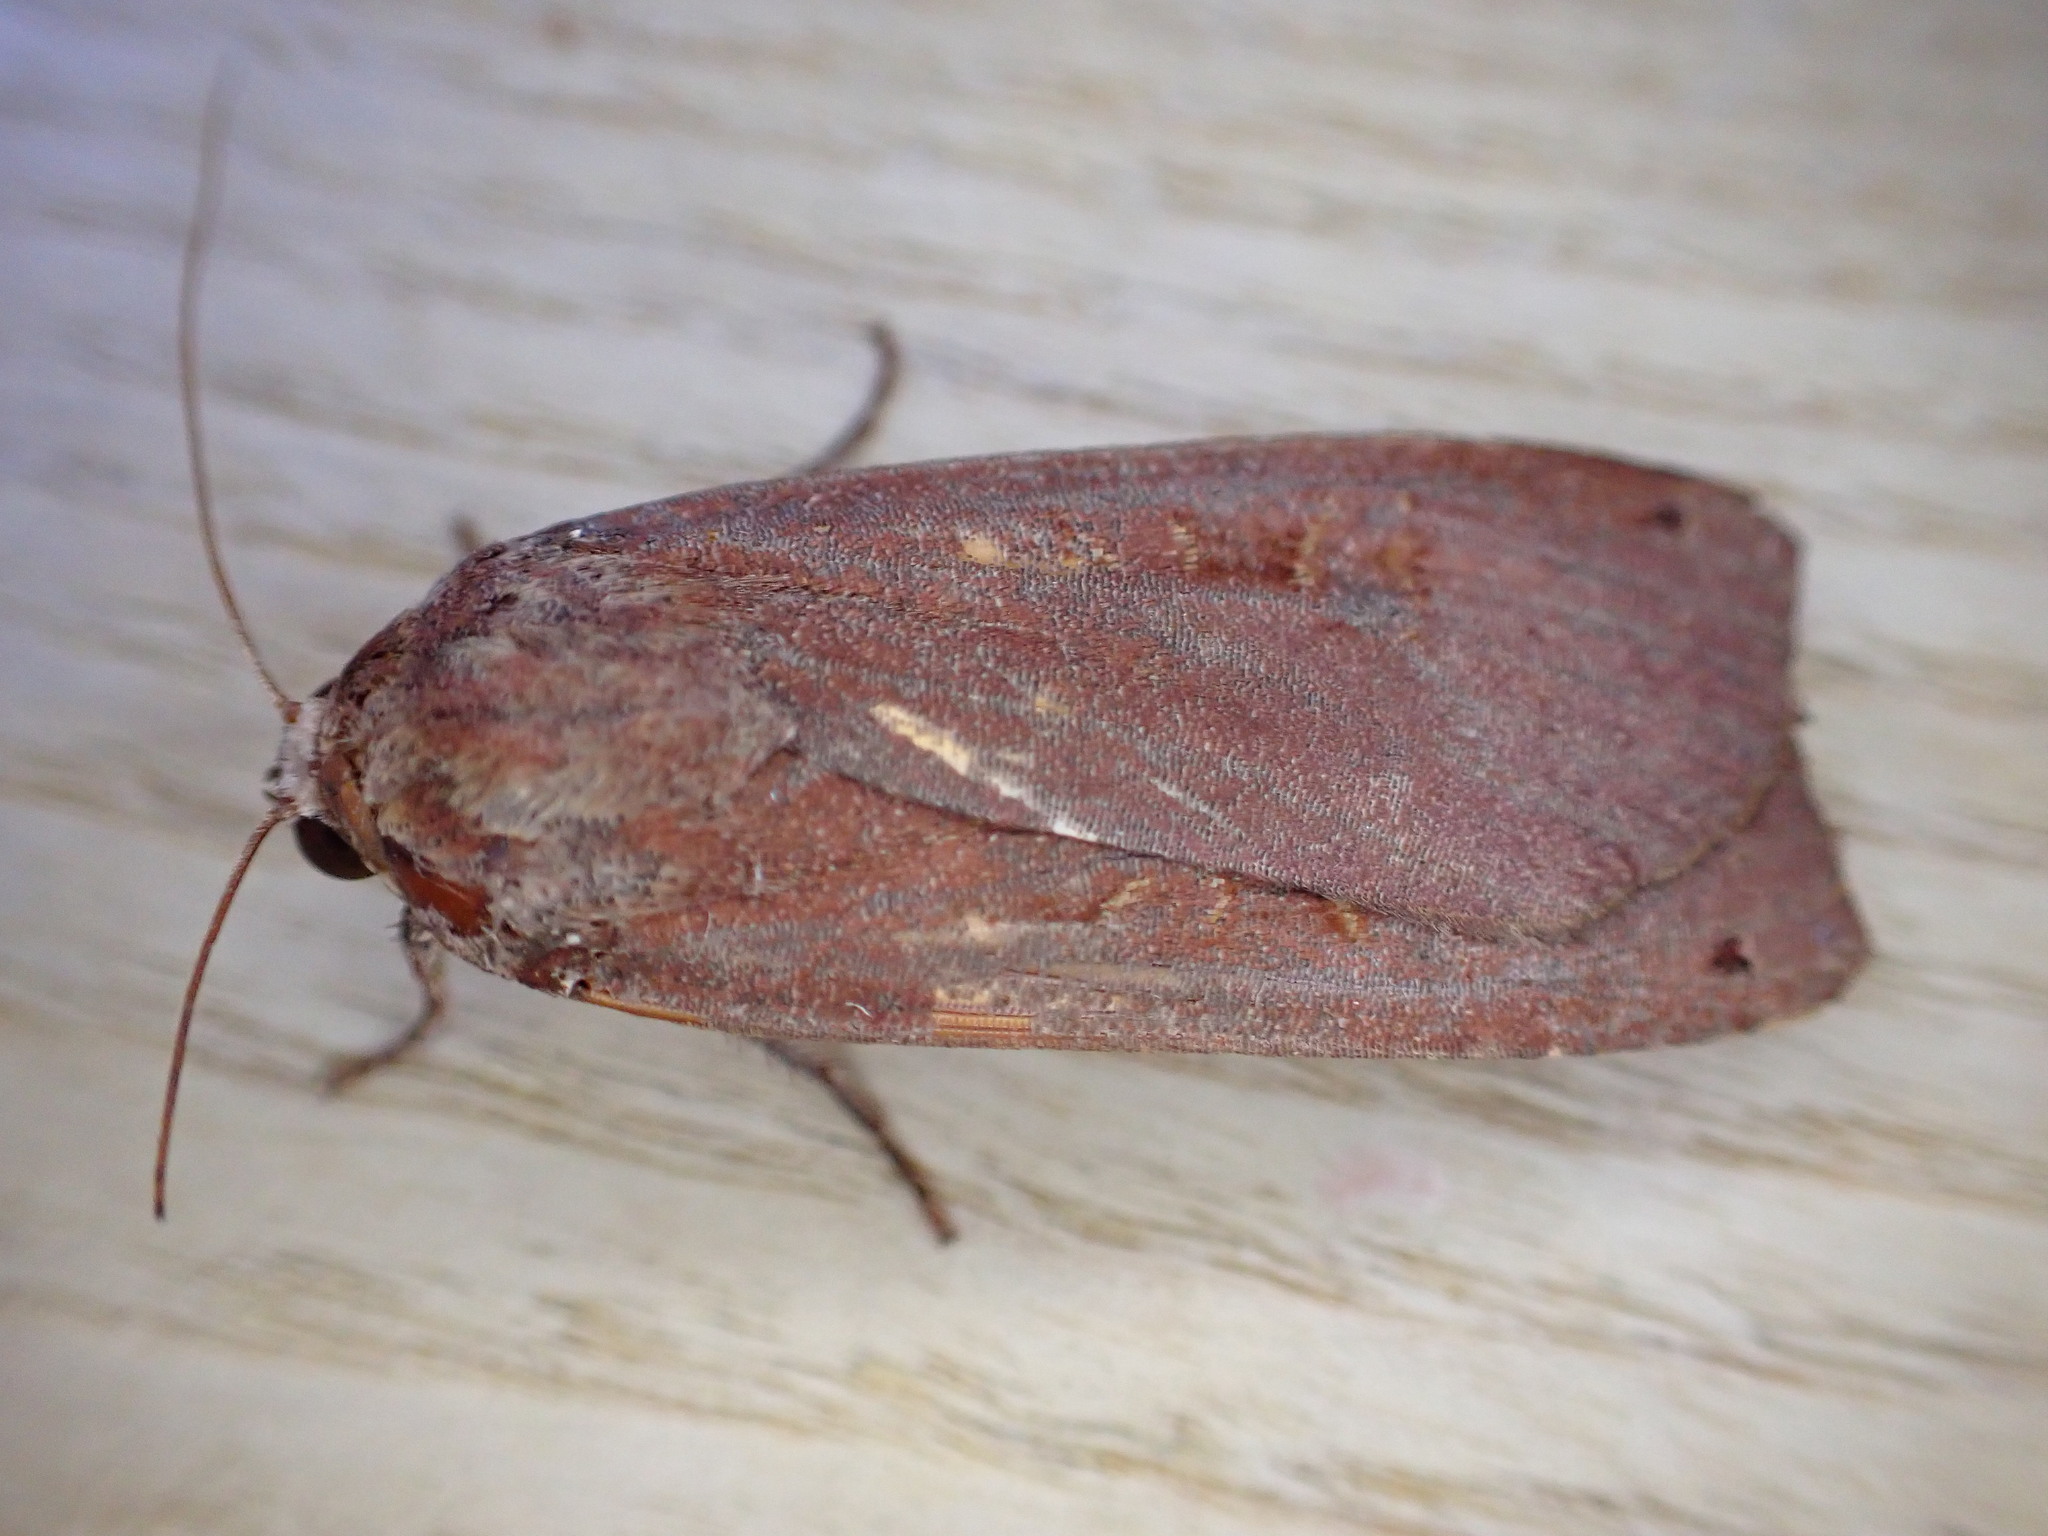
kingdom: Animalia
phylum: Arthropoda
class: Insecta
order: Lepidoptera
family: Noctuidae
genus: Noctua
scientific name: Noctua pronuba
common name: Large yellow underwing
